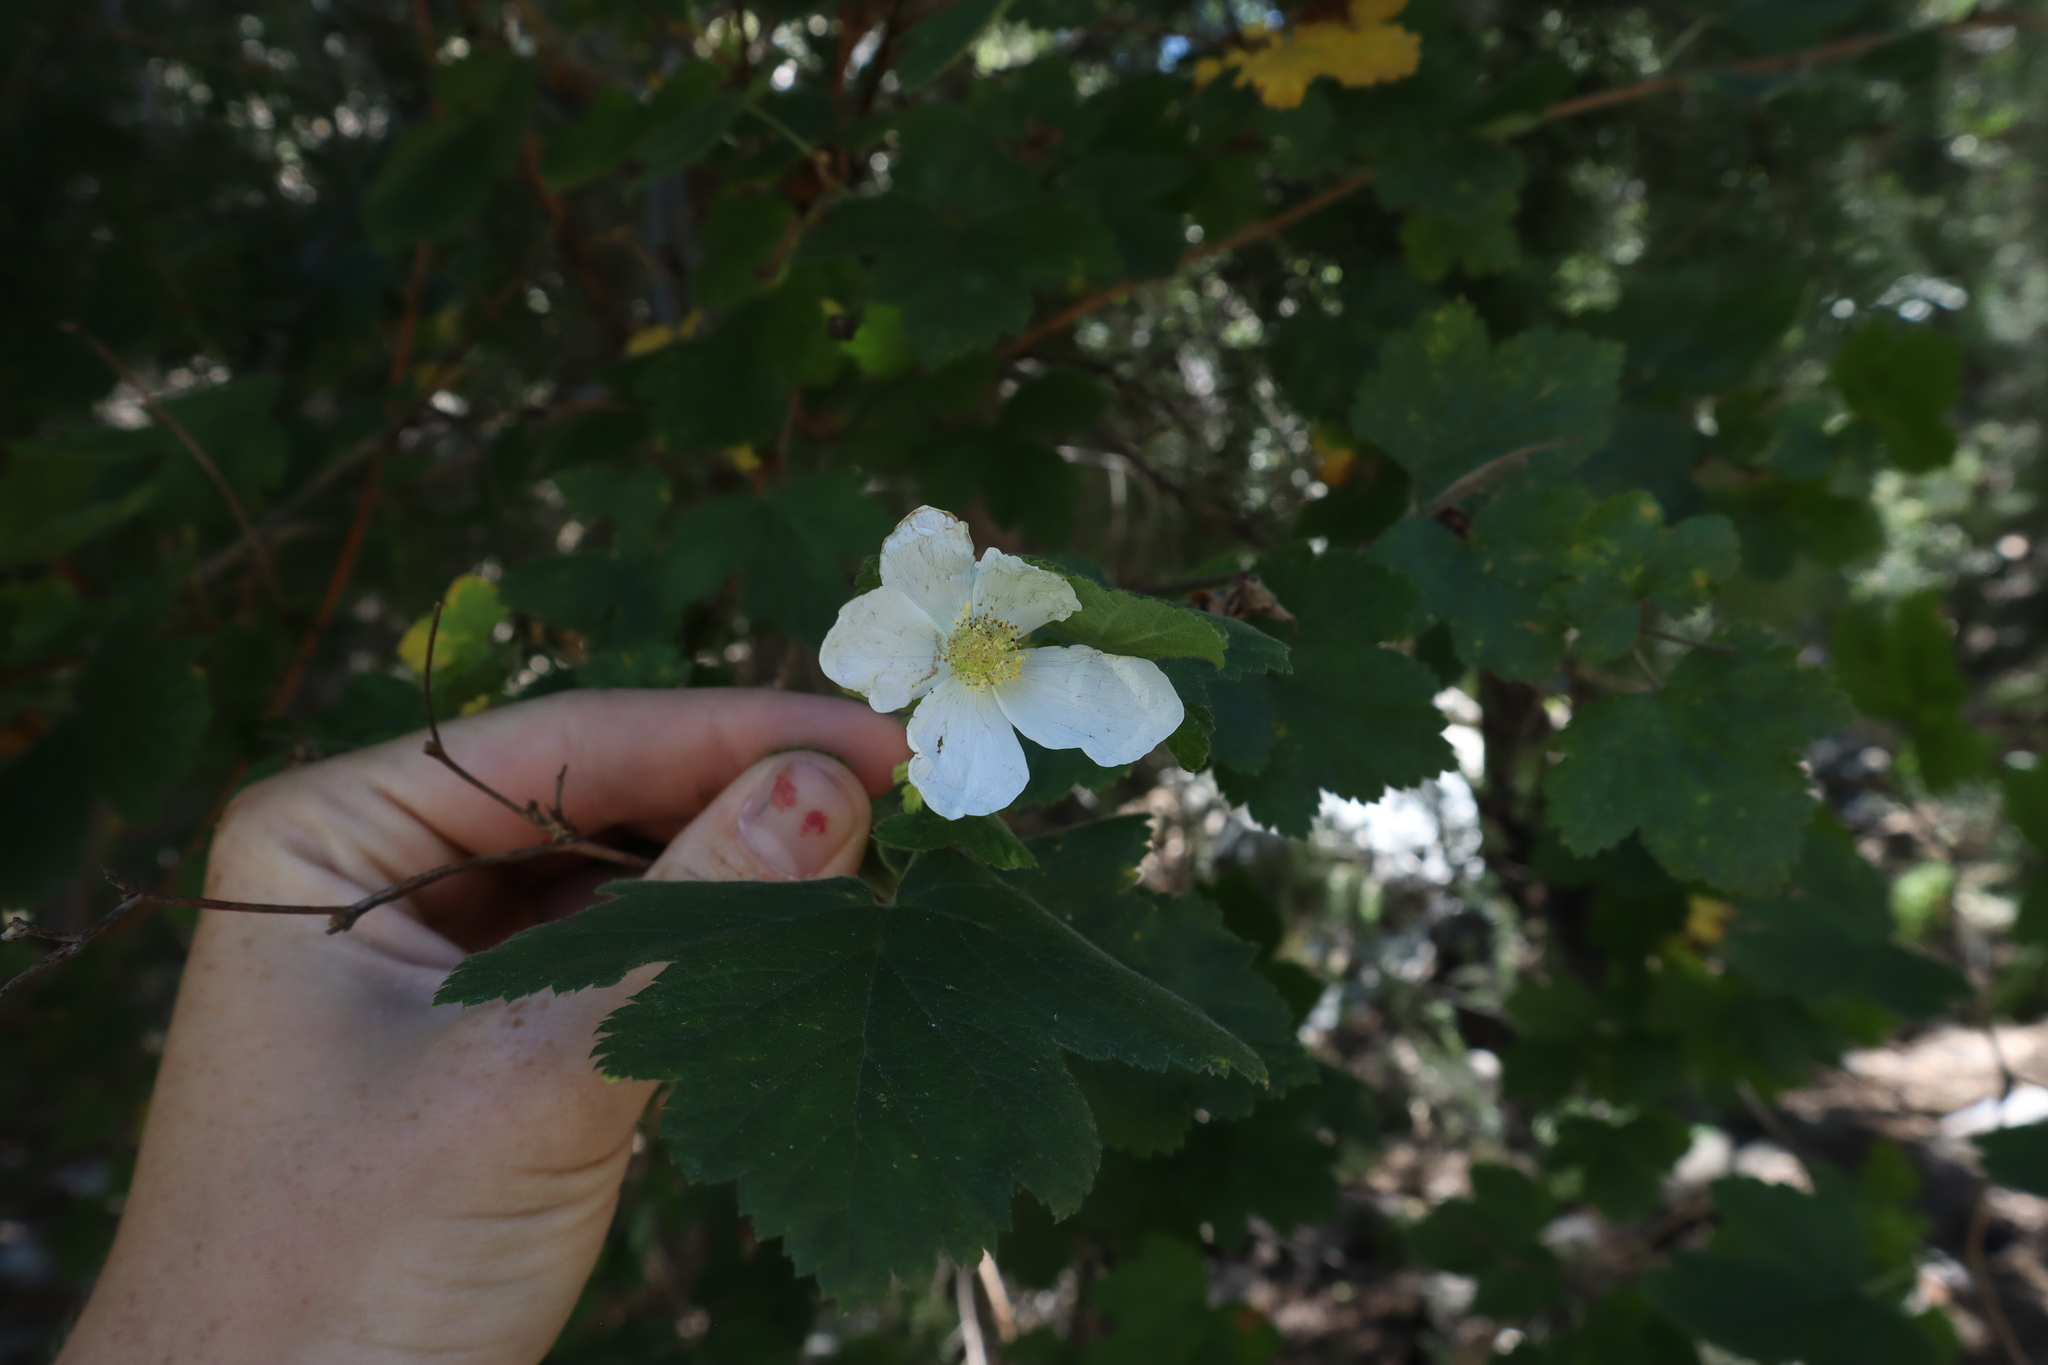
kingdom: Plantae
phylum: Tracheophyta
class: Magnoliopsida
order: Rosales
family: Rosaceae
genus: Rubus
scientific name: Rubus neomexicanus
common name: New mexico raspberry
